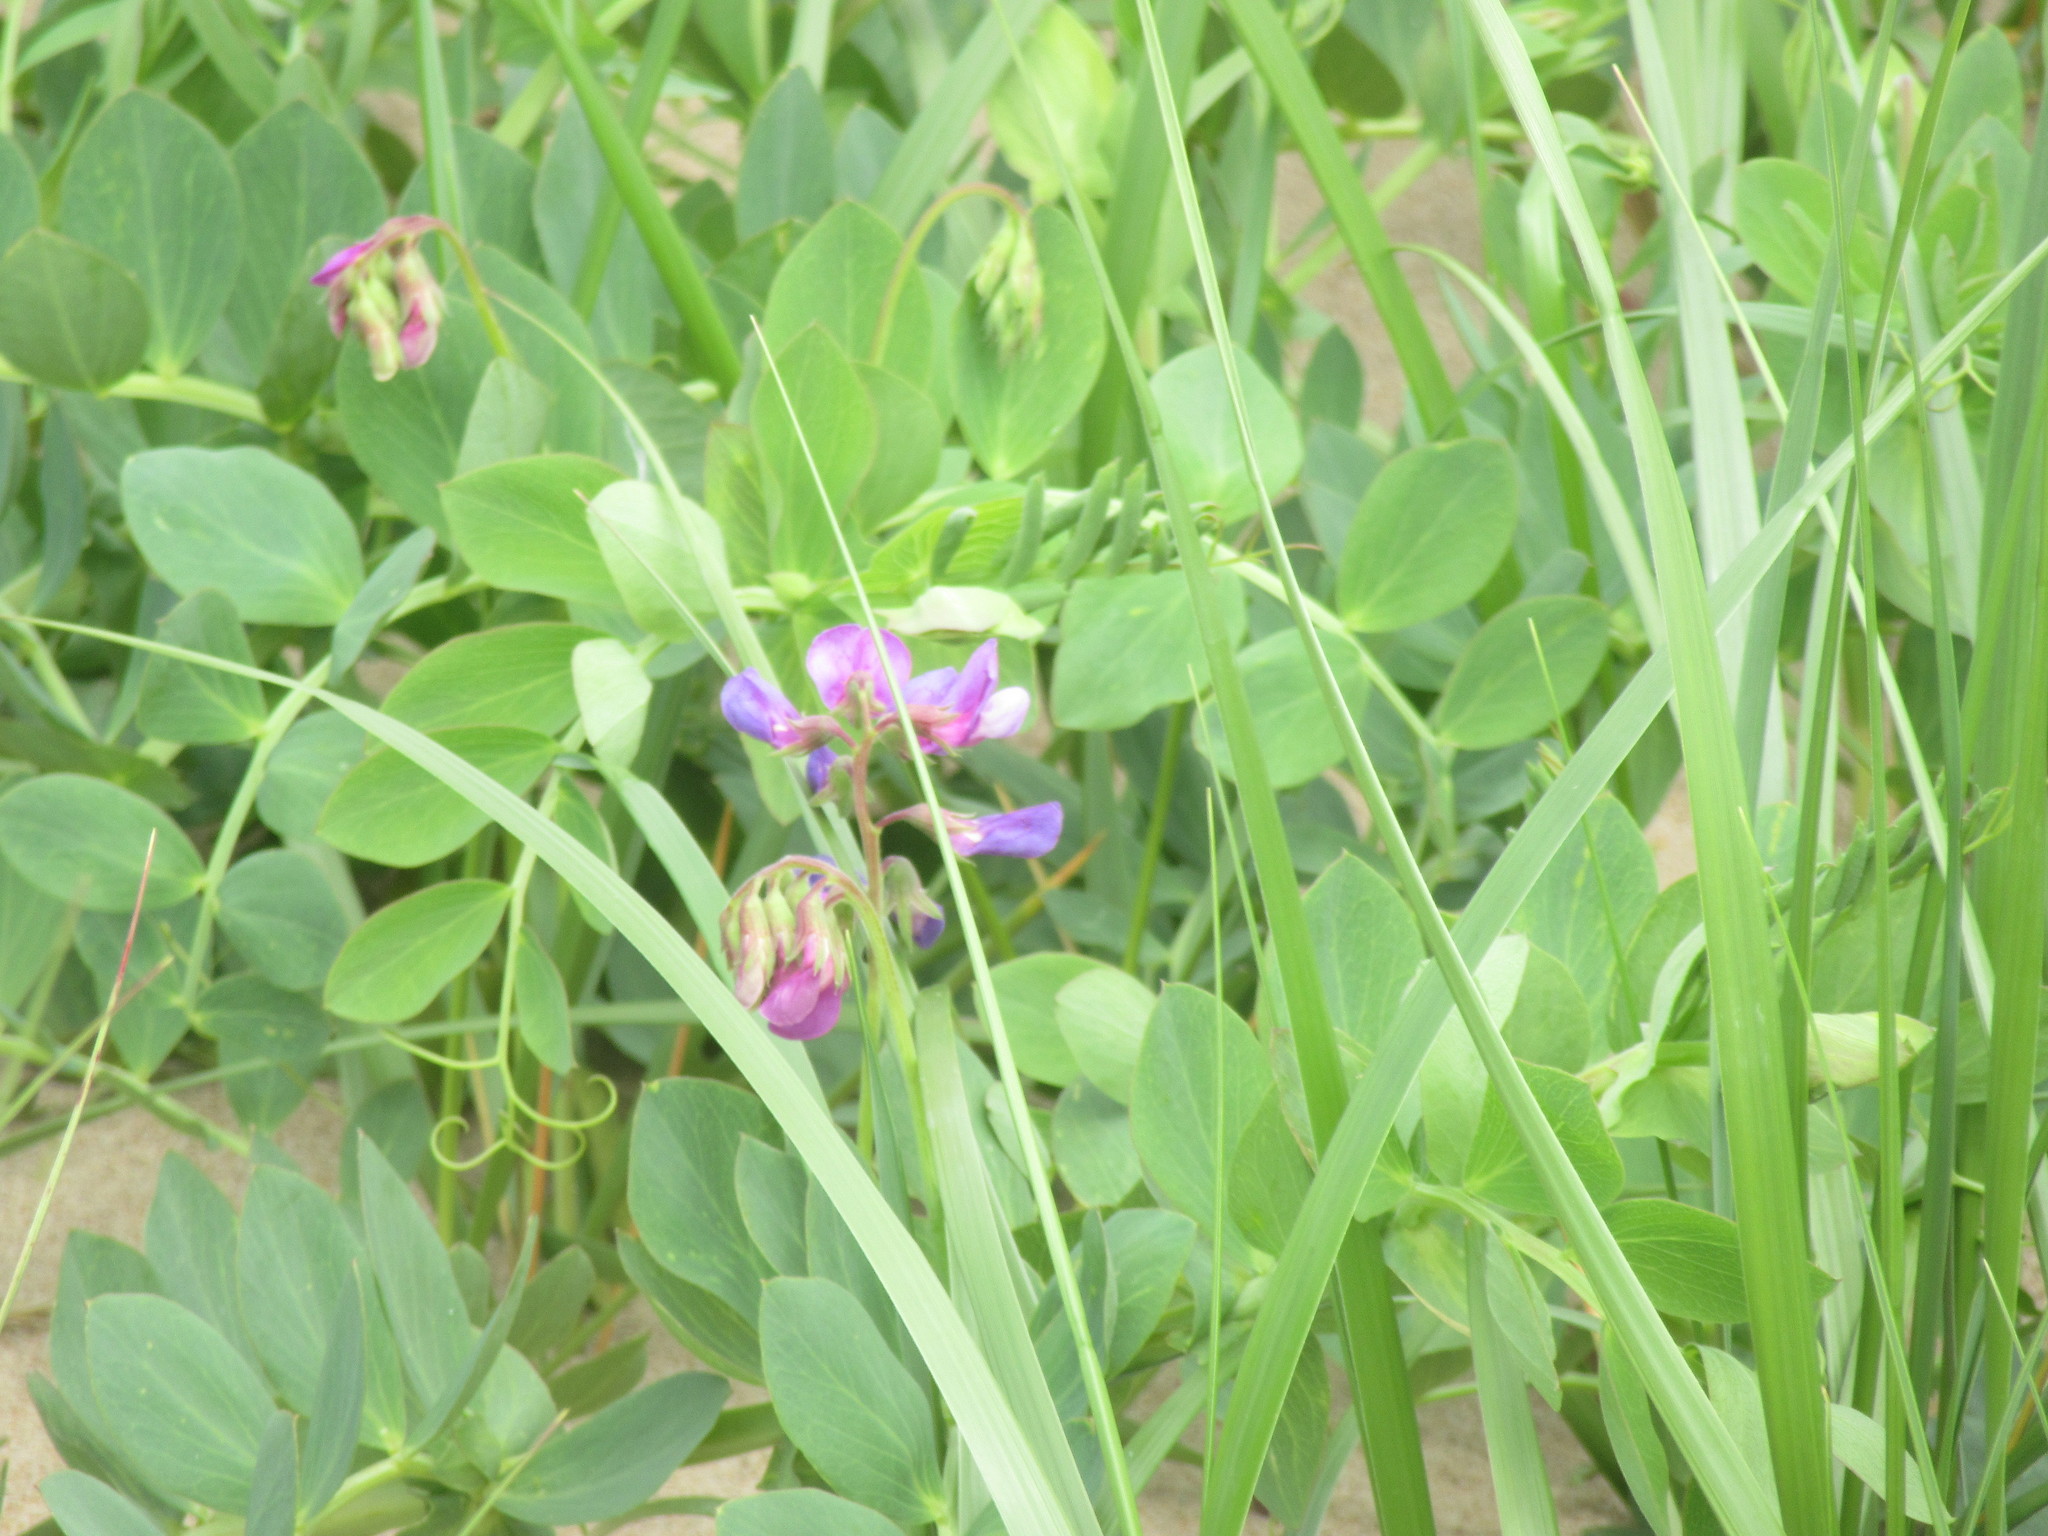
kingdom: Plantae
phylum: Tracheophyta
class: Magnoliopsida
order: Fabales
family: Fabaceae
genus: Lathyrus
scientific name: Lathyrus japonicus
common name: Sea pea
